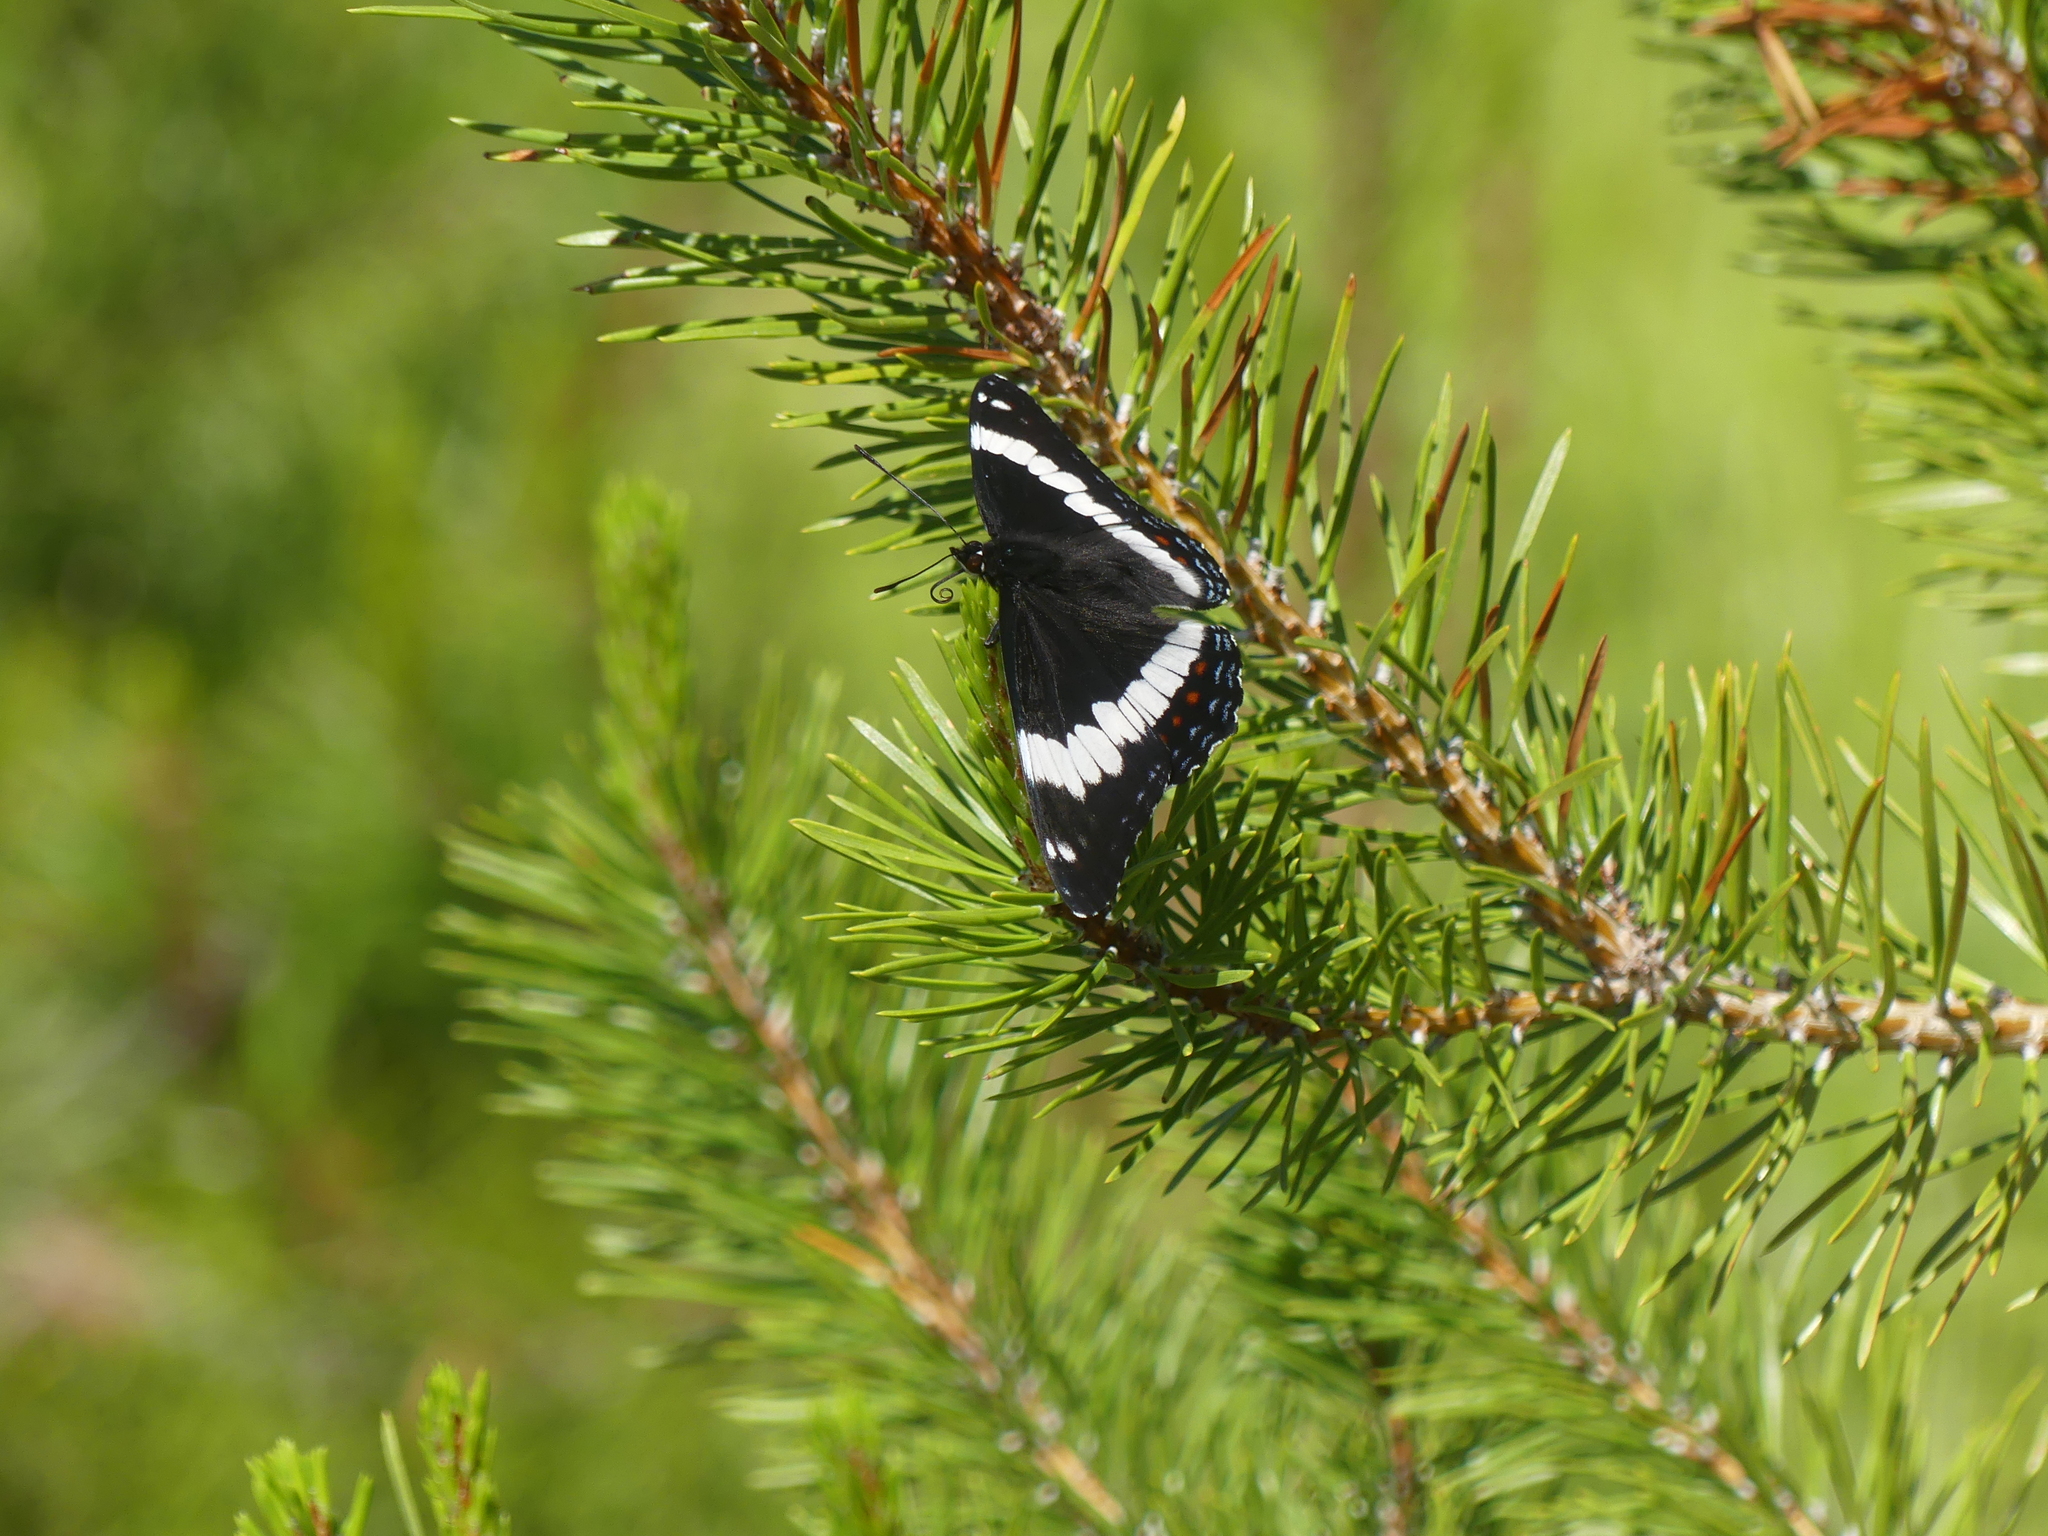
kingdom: Animalia
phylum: Arthropoda
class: Insecta
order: Lepidoptera
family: Nymphalidae
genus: Limenitis
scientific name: Limenitis arthemis
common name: Red-spotted admiral
